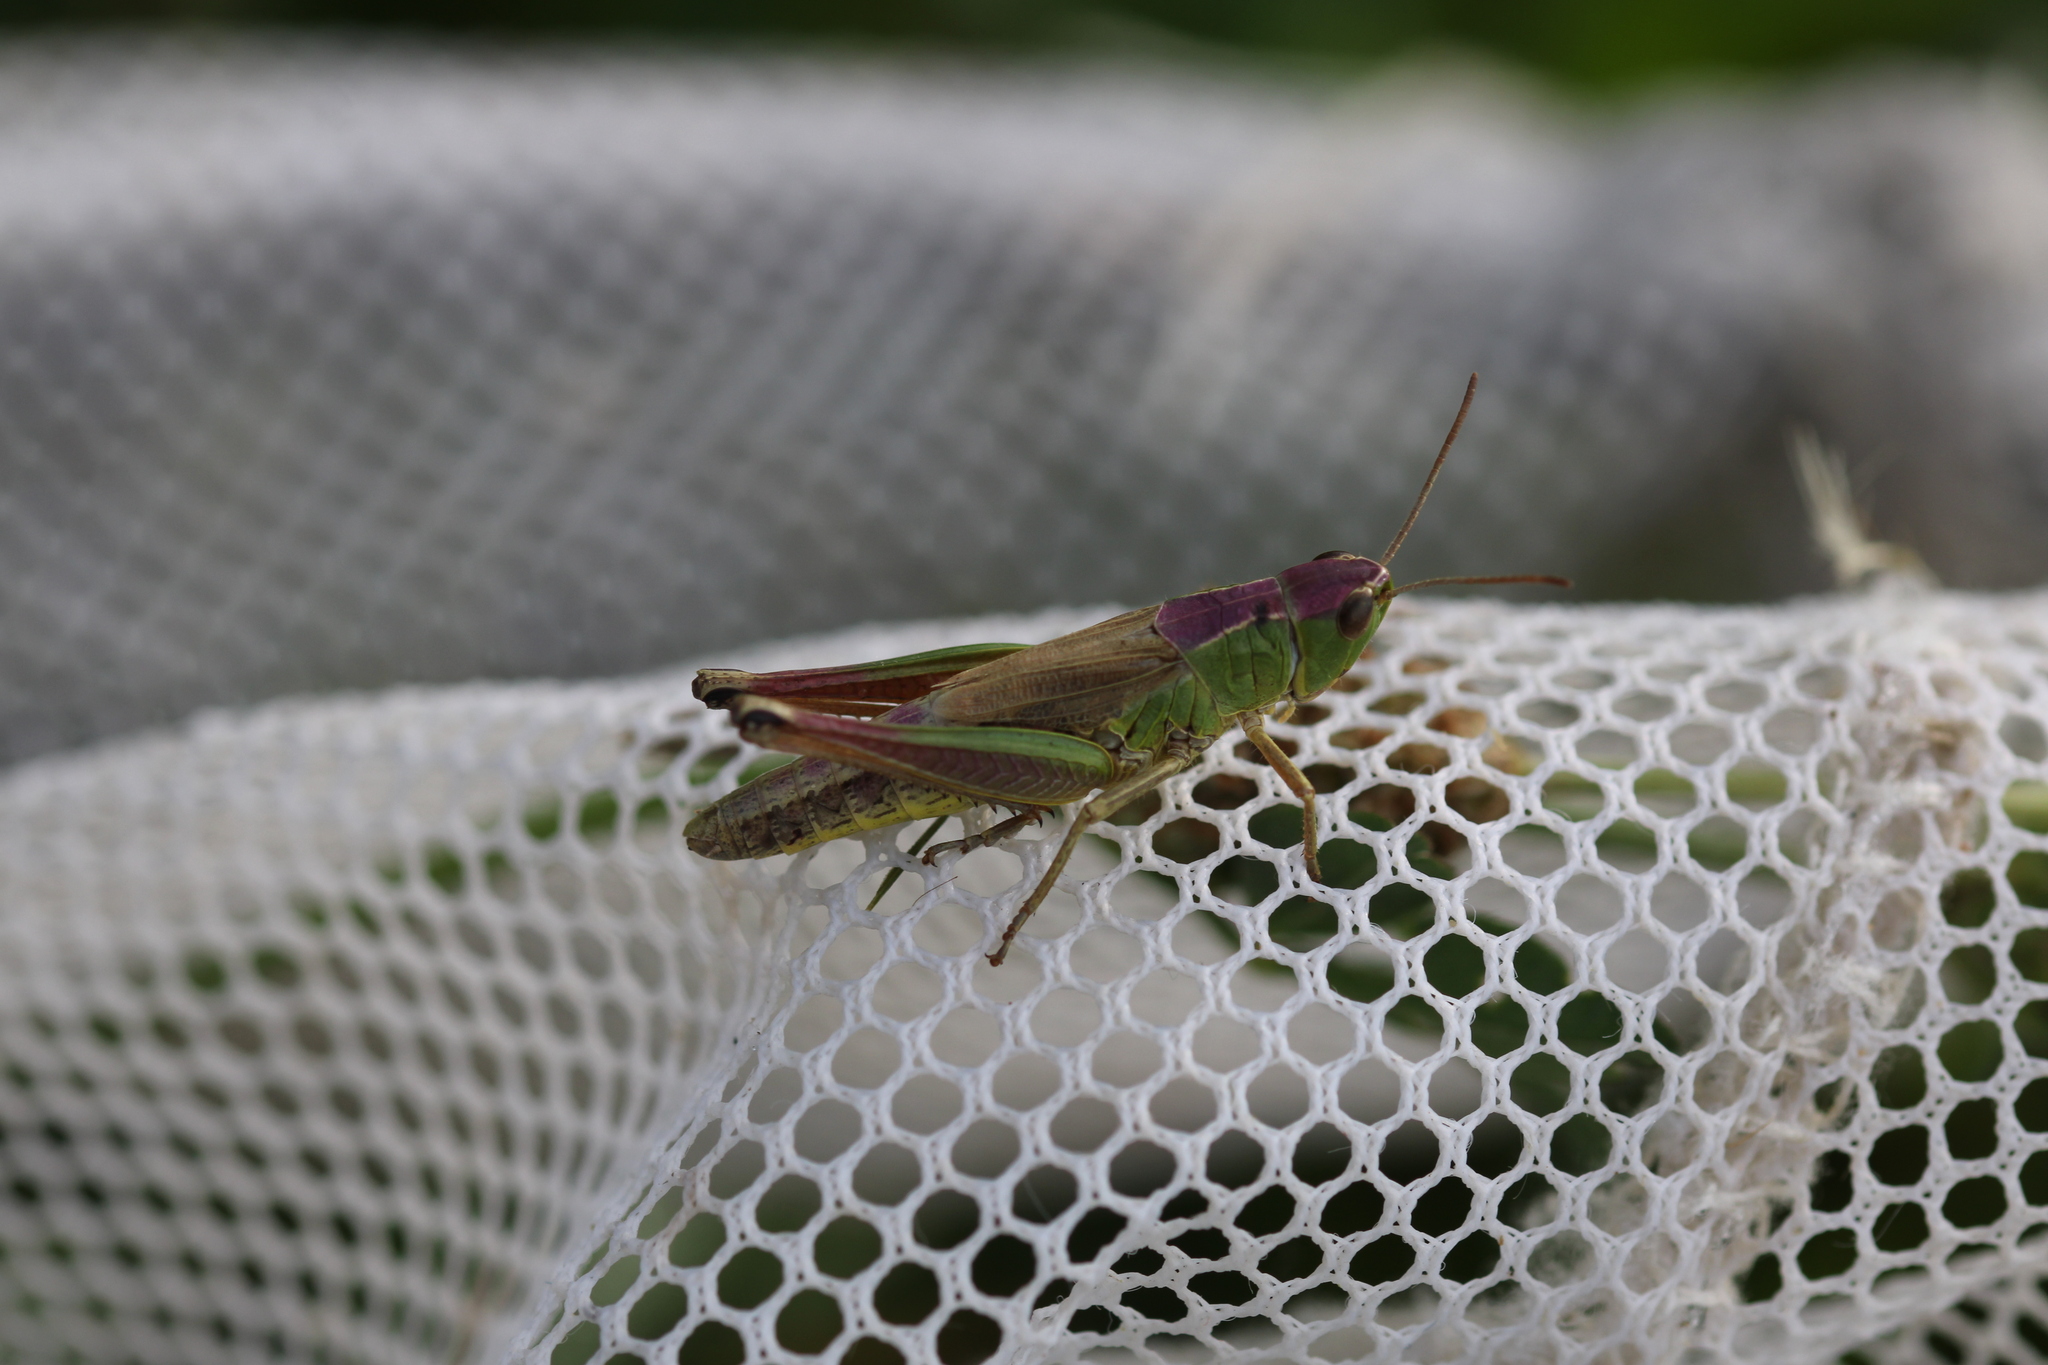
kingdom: Animalia
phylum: Arthropoda
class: Insecta
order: Orthoptera
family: Acrididae
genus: Pseudochorthippus
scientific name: Pseudochorthippus parallelus
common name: Meadow grasshopper
